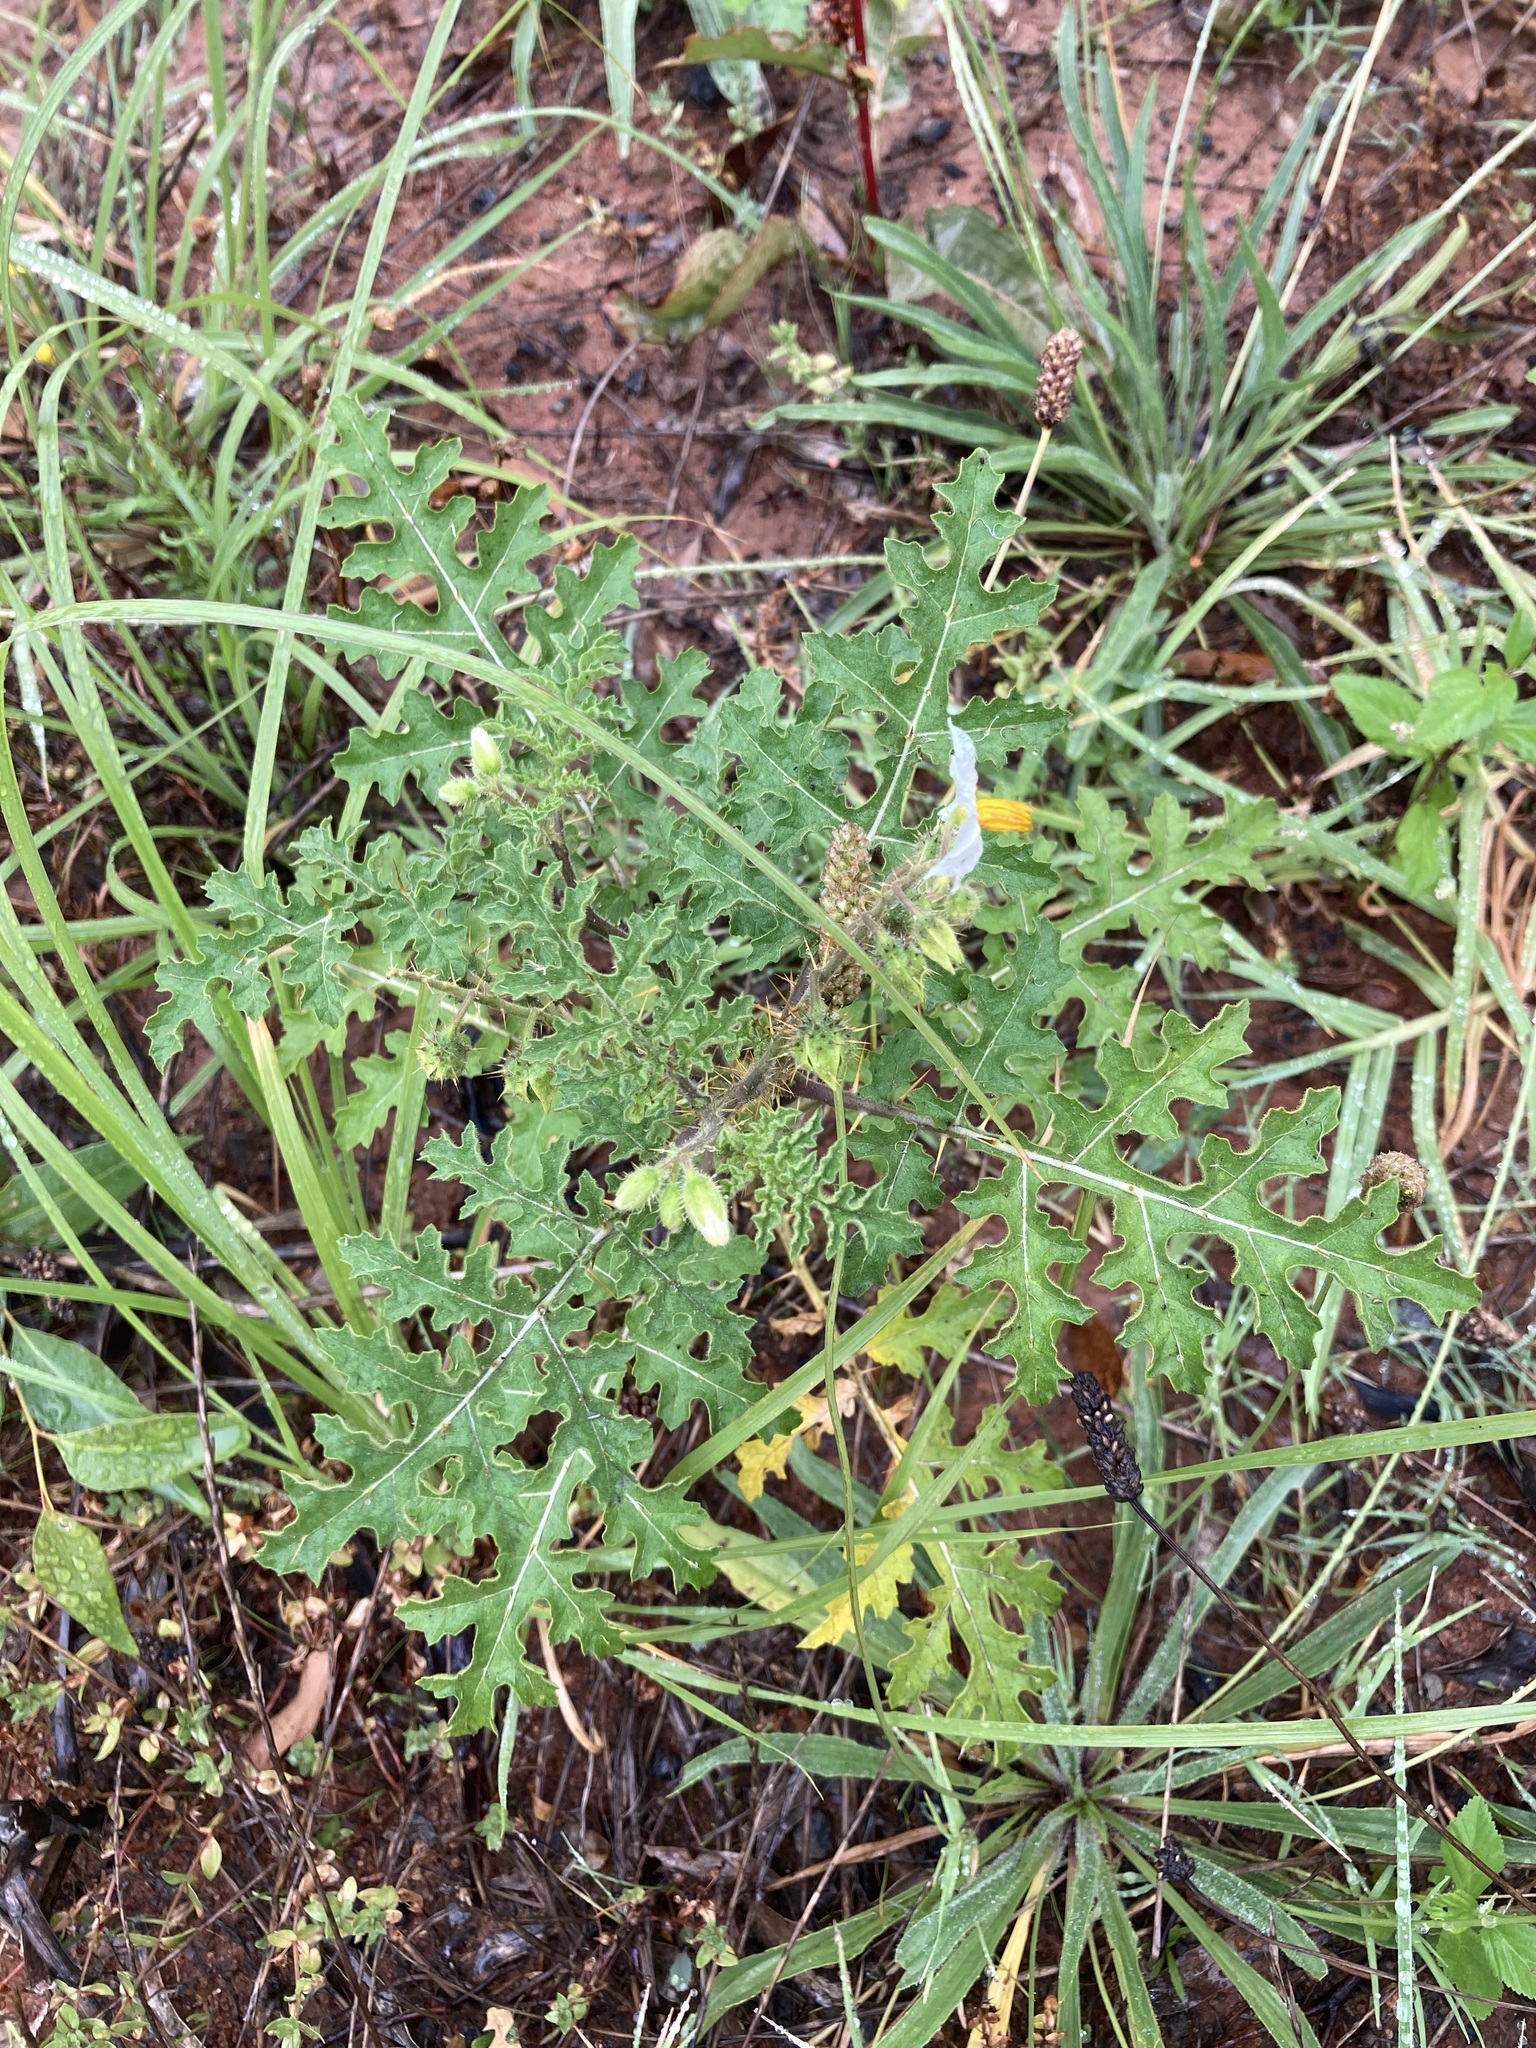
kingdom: Plantae
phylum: Tracheophyta
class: Magnoliopsida
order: Solanales
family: Solanaceae
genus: Solanum
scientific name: Solanum sisymbriifolium
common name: Red buffalo-bur
